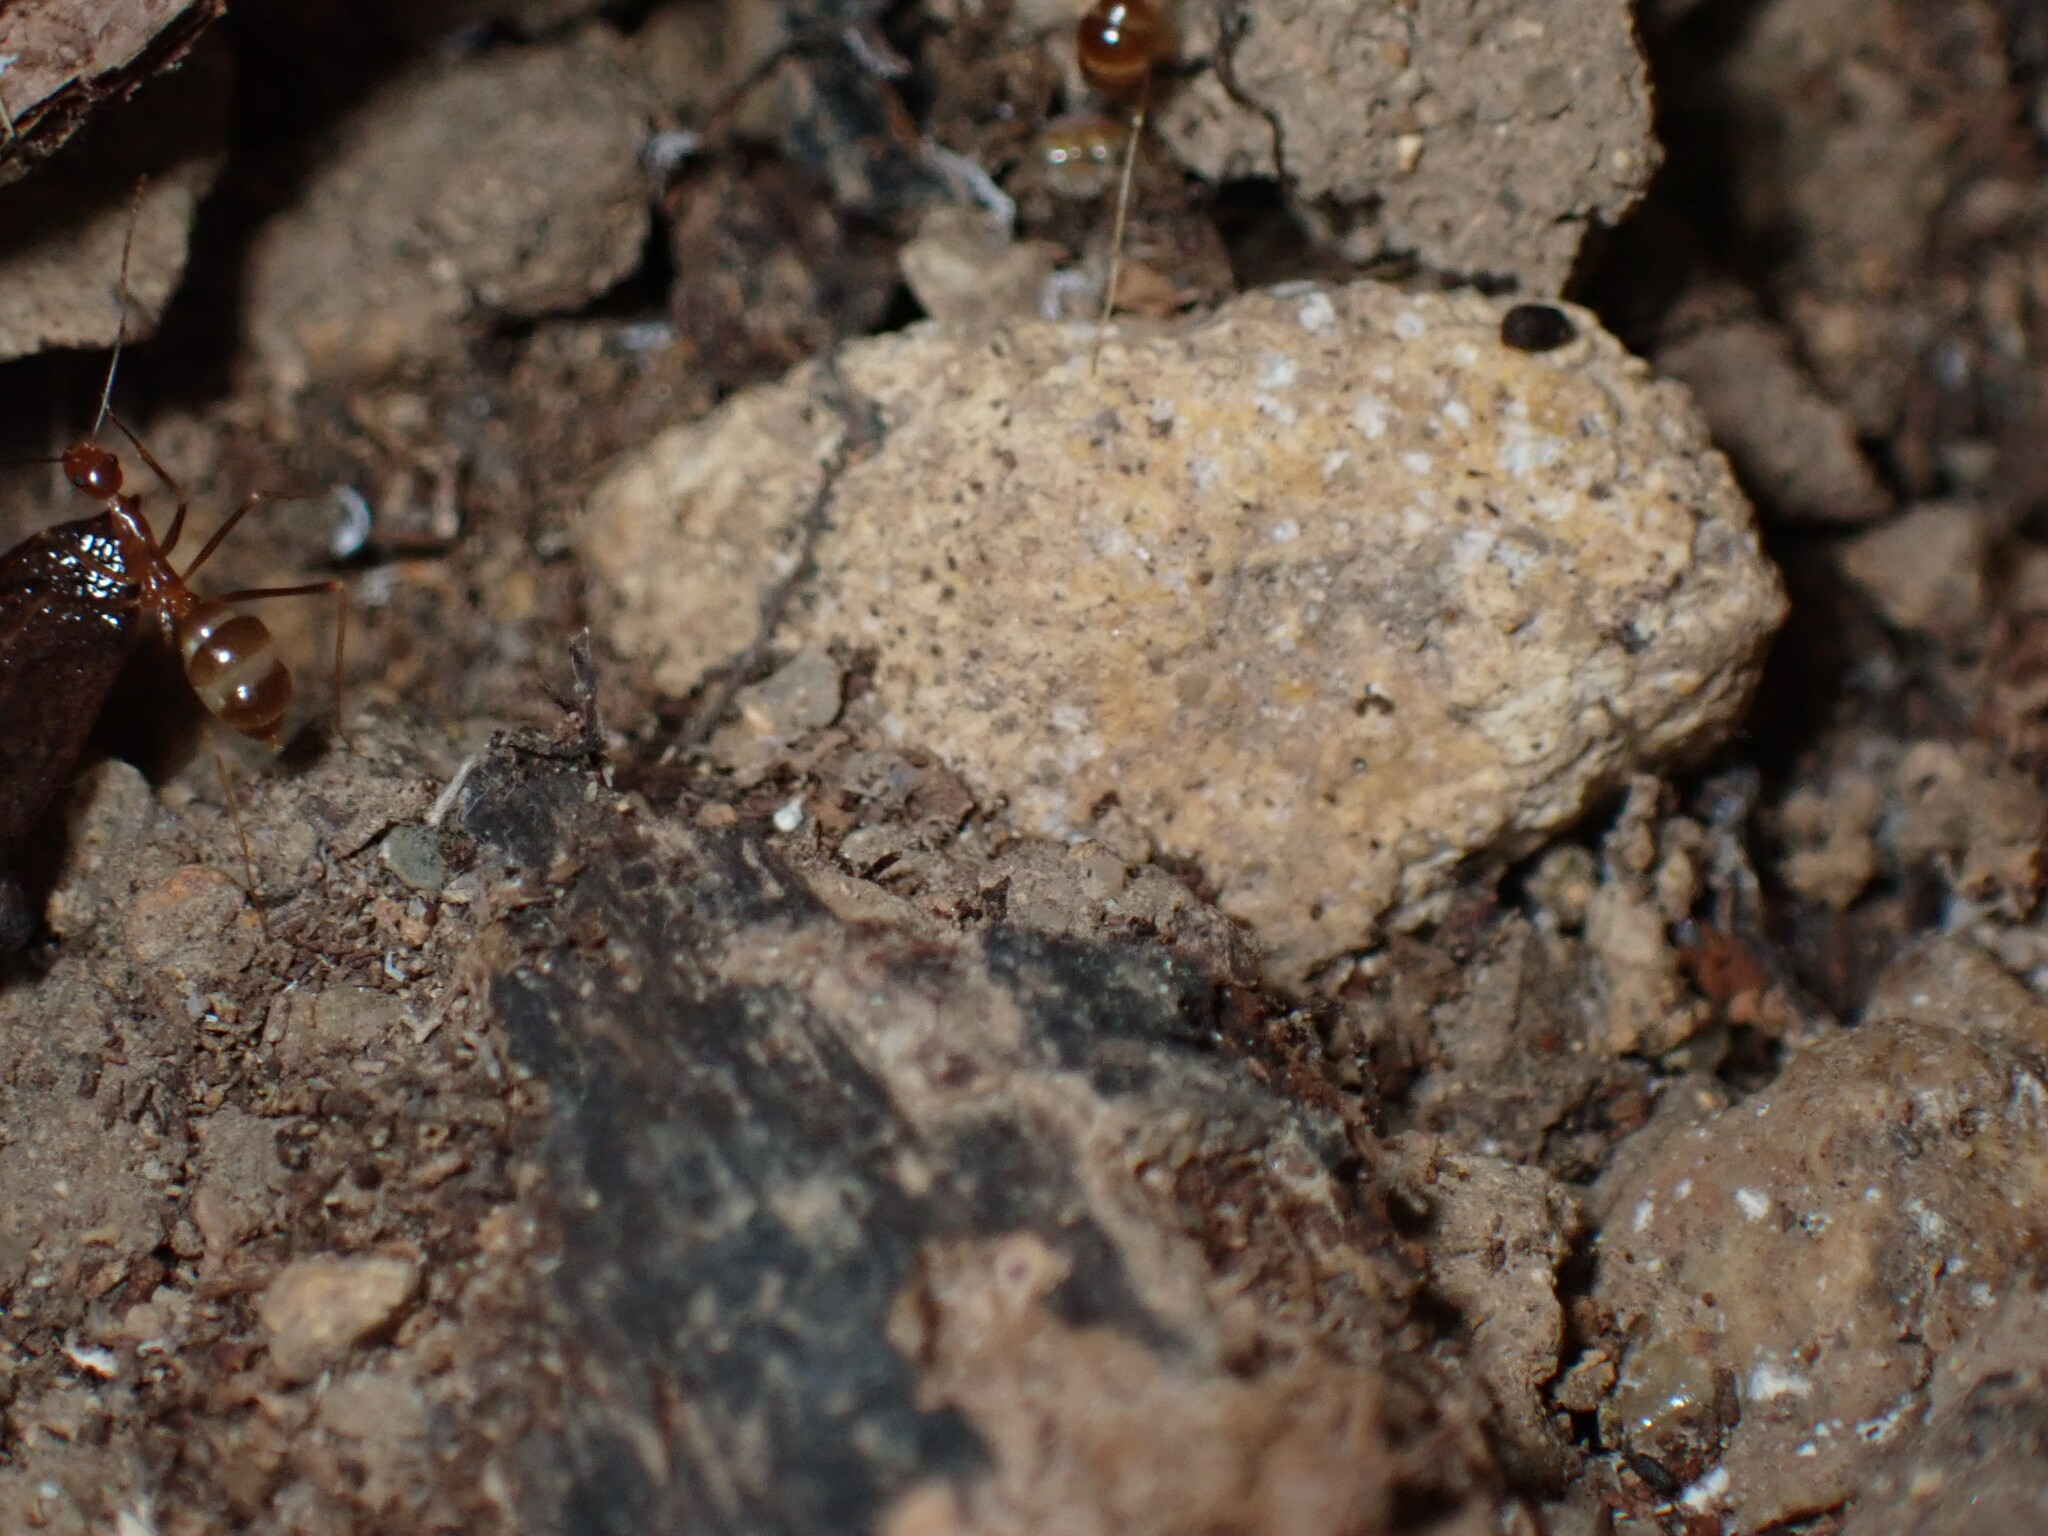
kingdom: Animalia
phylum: Arthropoda
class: Insecta
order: Hymenoptera
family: Formicidae
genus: Anoplolepis
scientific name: Anoplolepis gracilipes
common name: Ant
